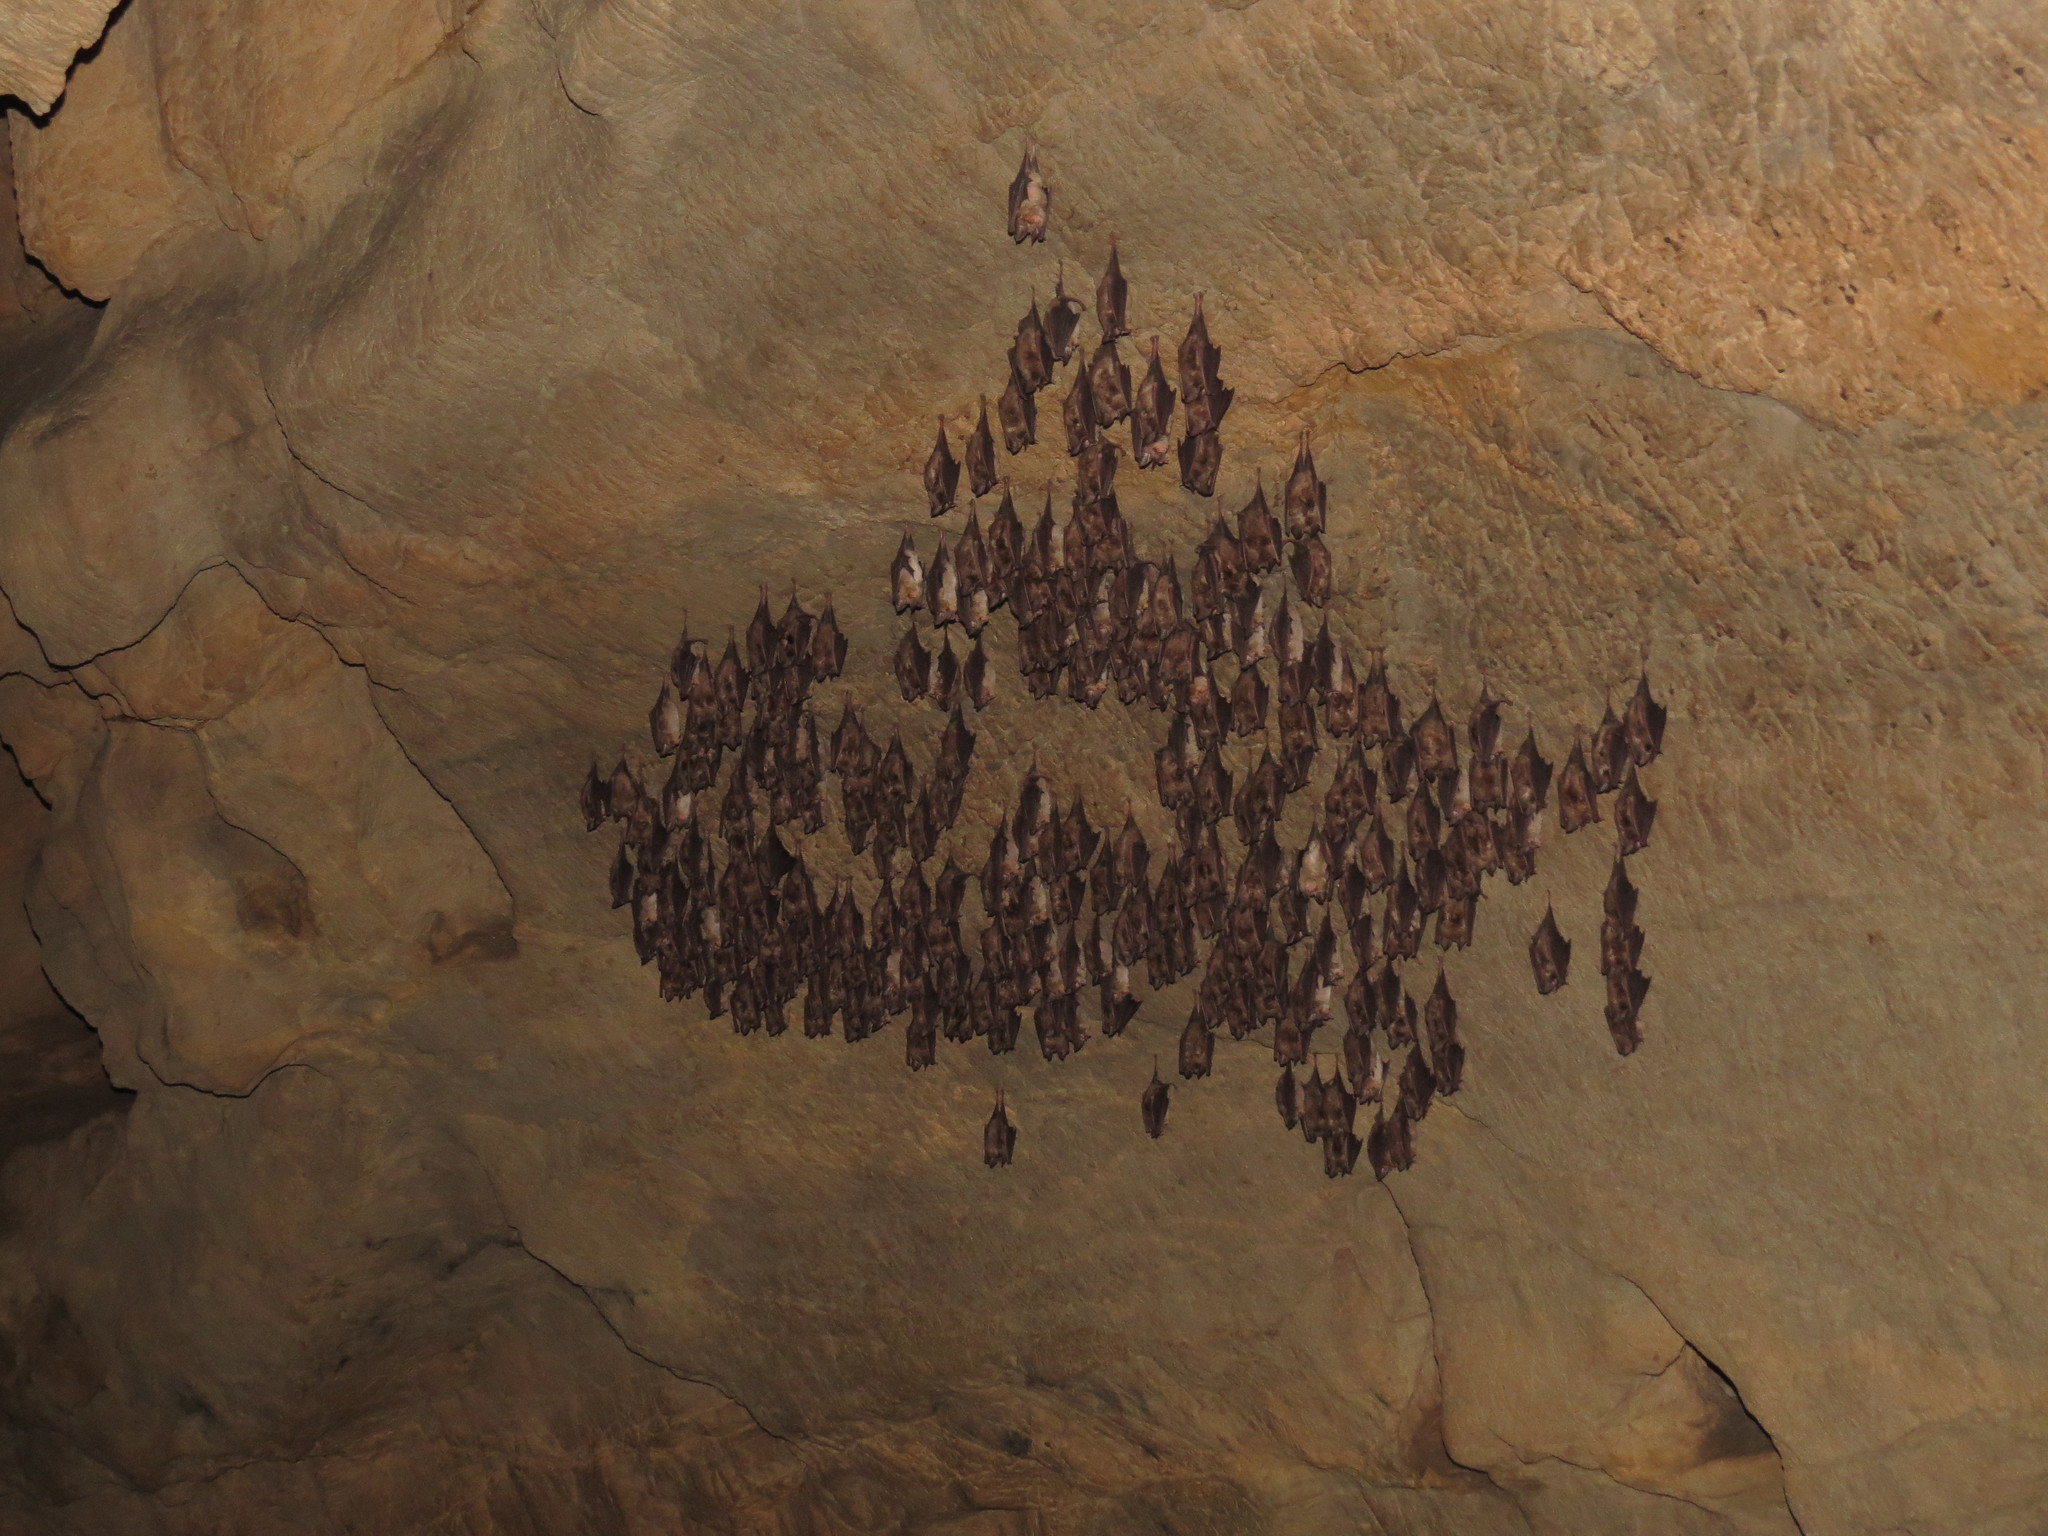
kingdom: Animalia
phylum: Chordata
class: Mammalia
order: Chiroptera
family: Rhinolophidae
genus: Rhinolophus
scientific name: Rhinolophus euryale
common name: Mediterranean horseshoe bat
